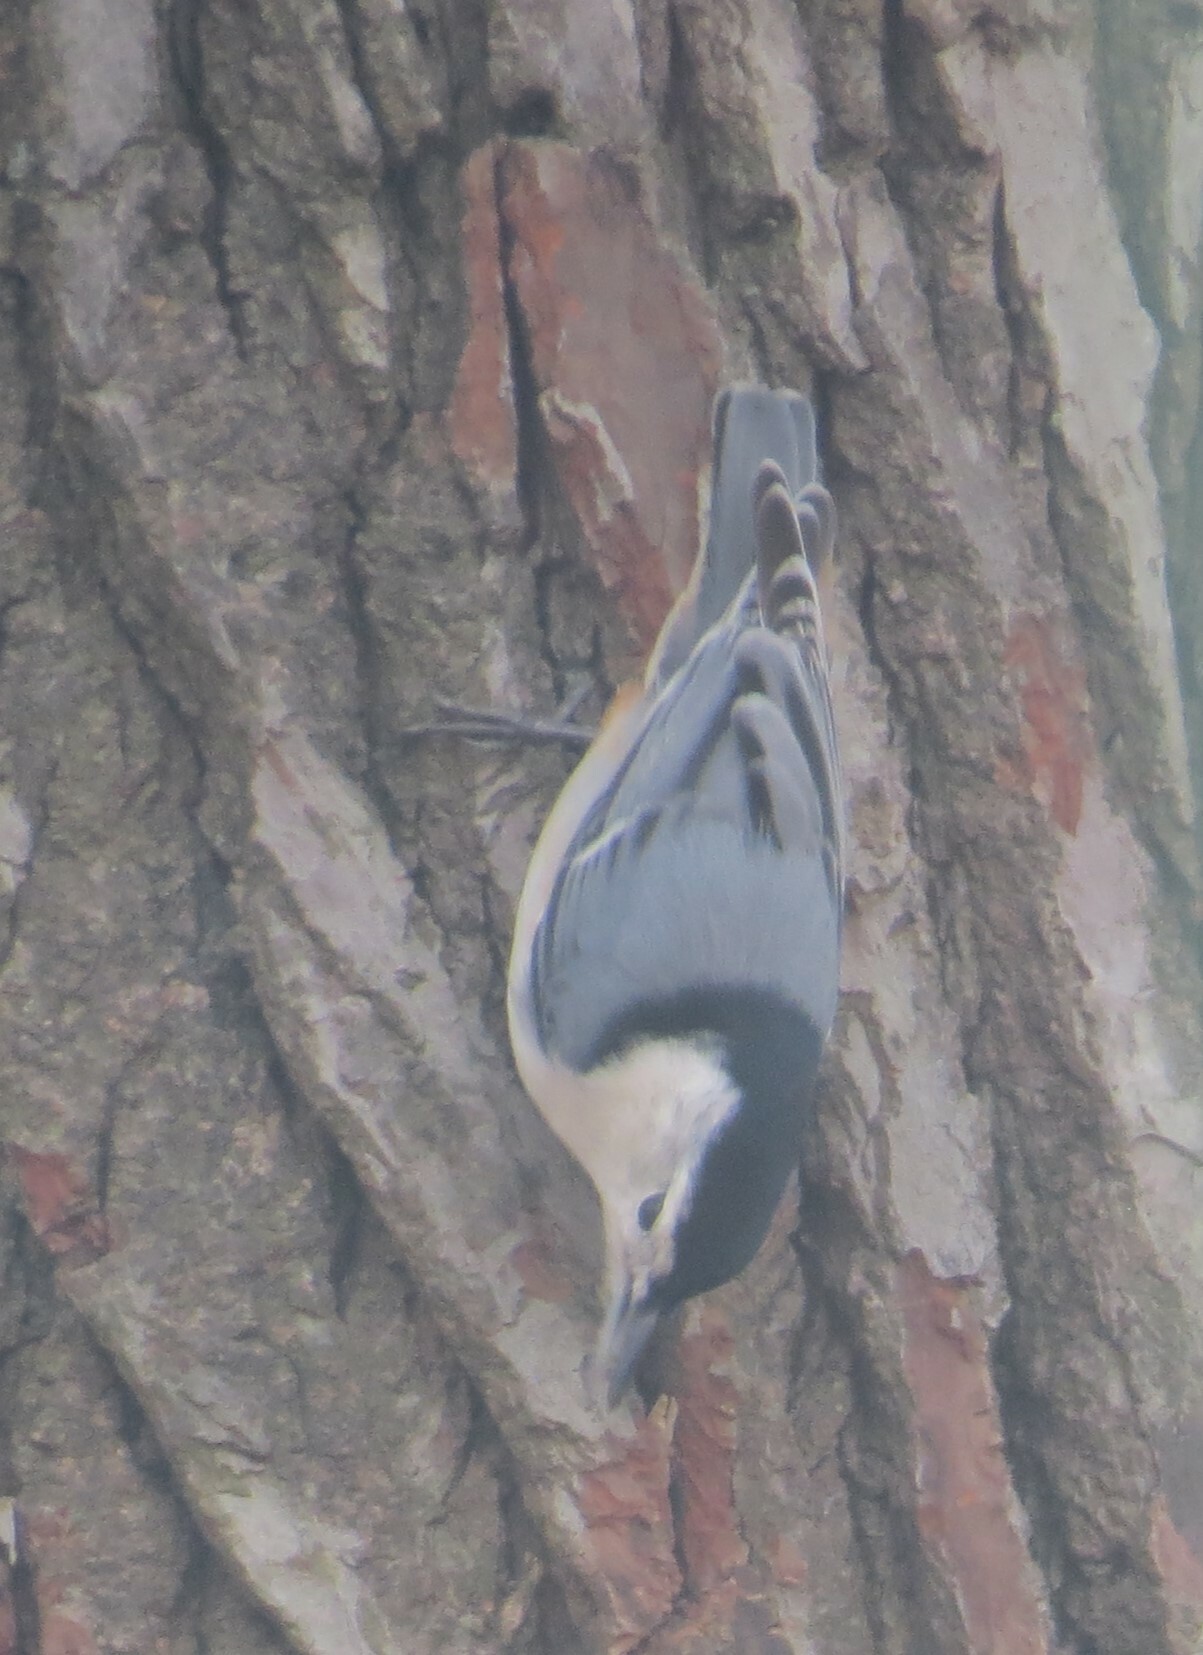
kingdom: Animalia
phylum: Chordata
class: Aves
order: Passeriformes
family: Sittidae
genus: Sitta
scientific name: Sitta carolinensis
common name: White-breasted nuthatch
